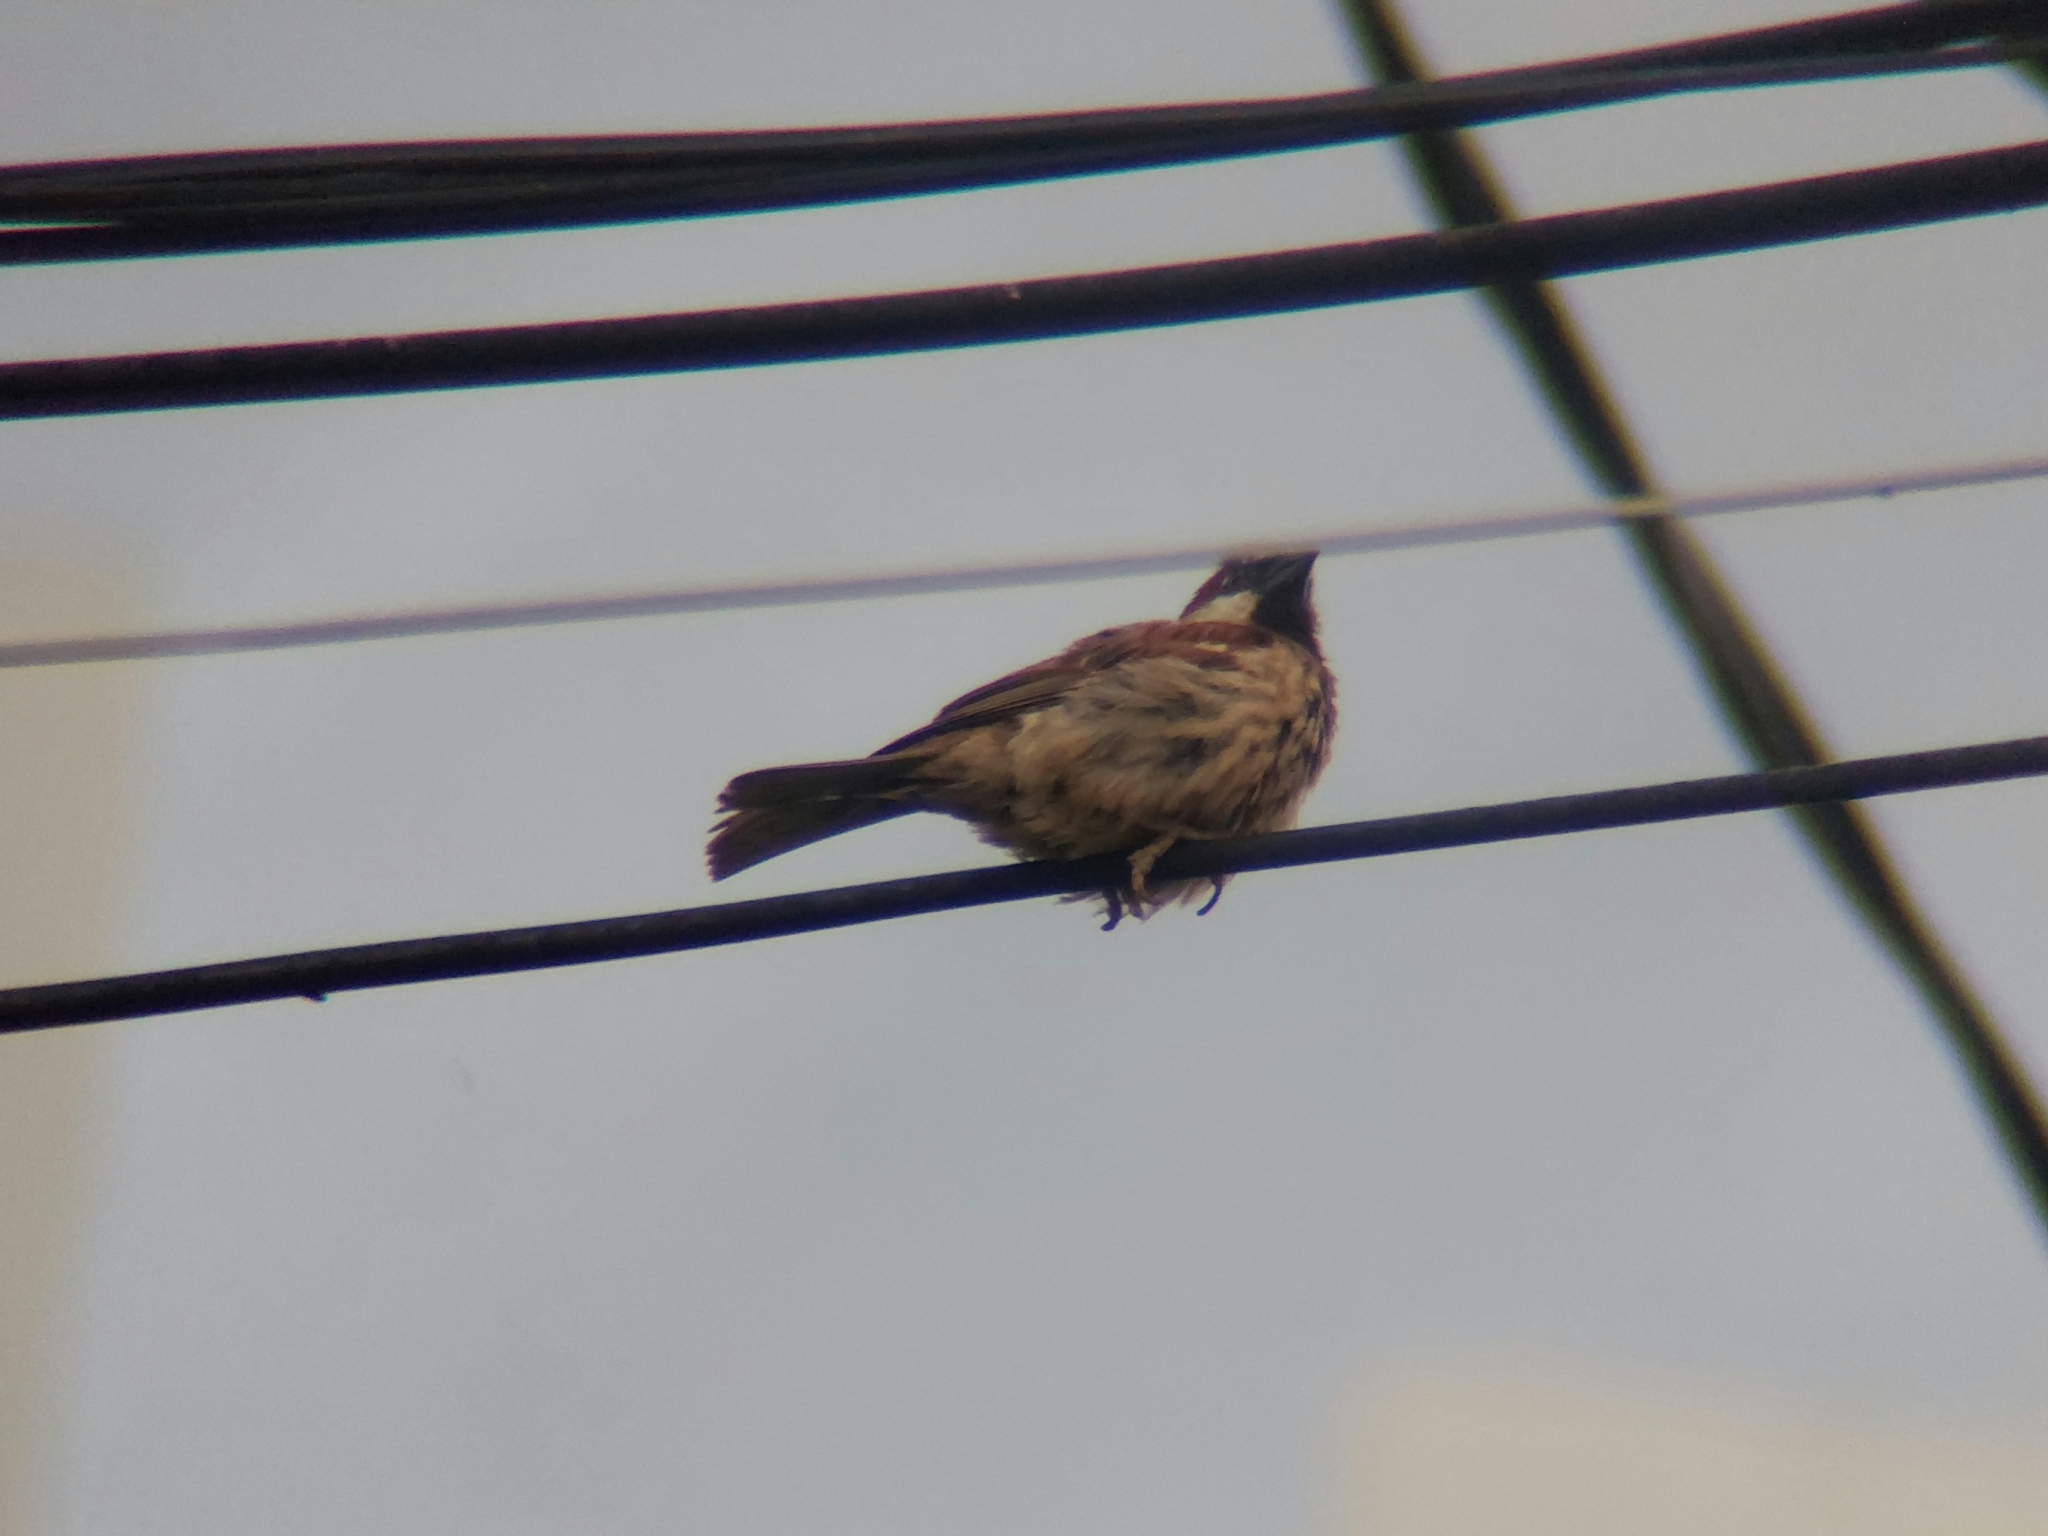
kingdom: Animalia
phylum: Chordata
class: Aves
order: Passeriformes
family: Passeridae
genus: Passer
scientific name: Passer domesticus
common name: House sparrow
